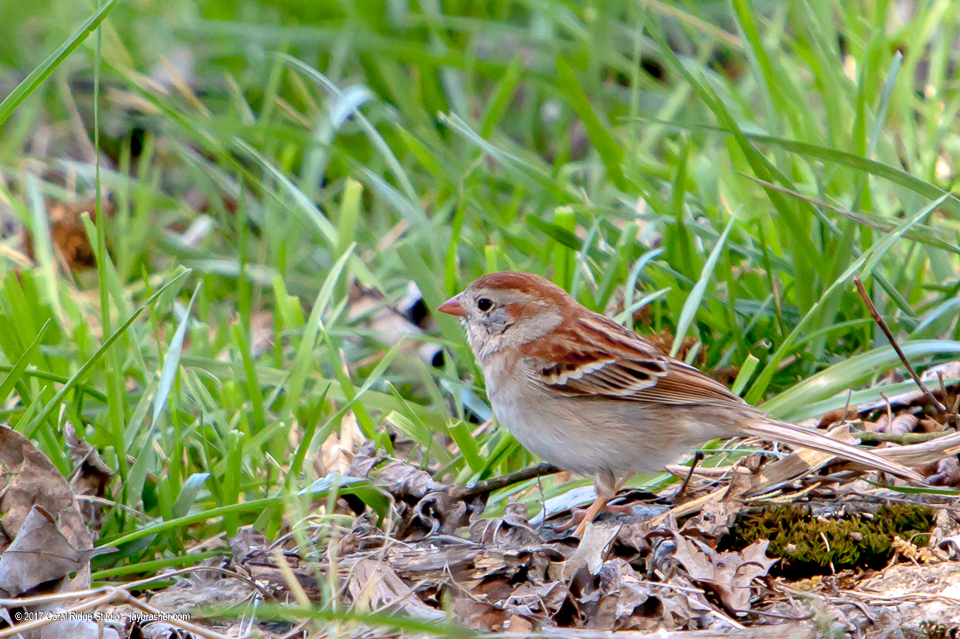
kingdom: Animalia
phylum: Chordata
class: Aves
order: Passeriformes
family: Passerellidae
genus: Spizella
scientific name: Spizella pusilla
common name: Field sparrow
